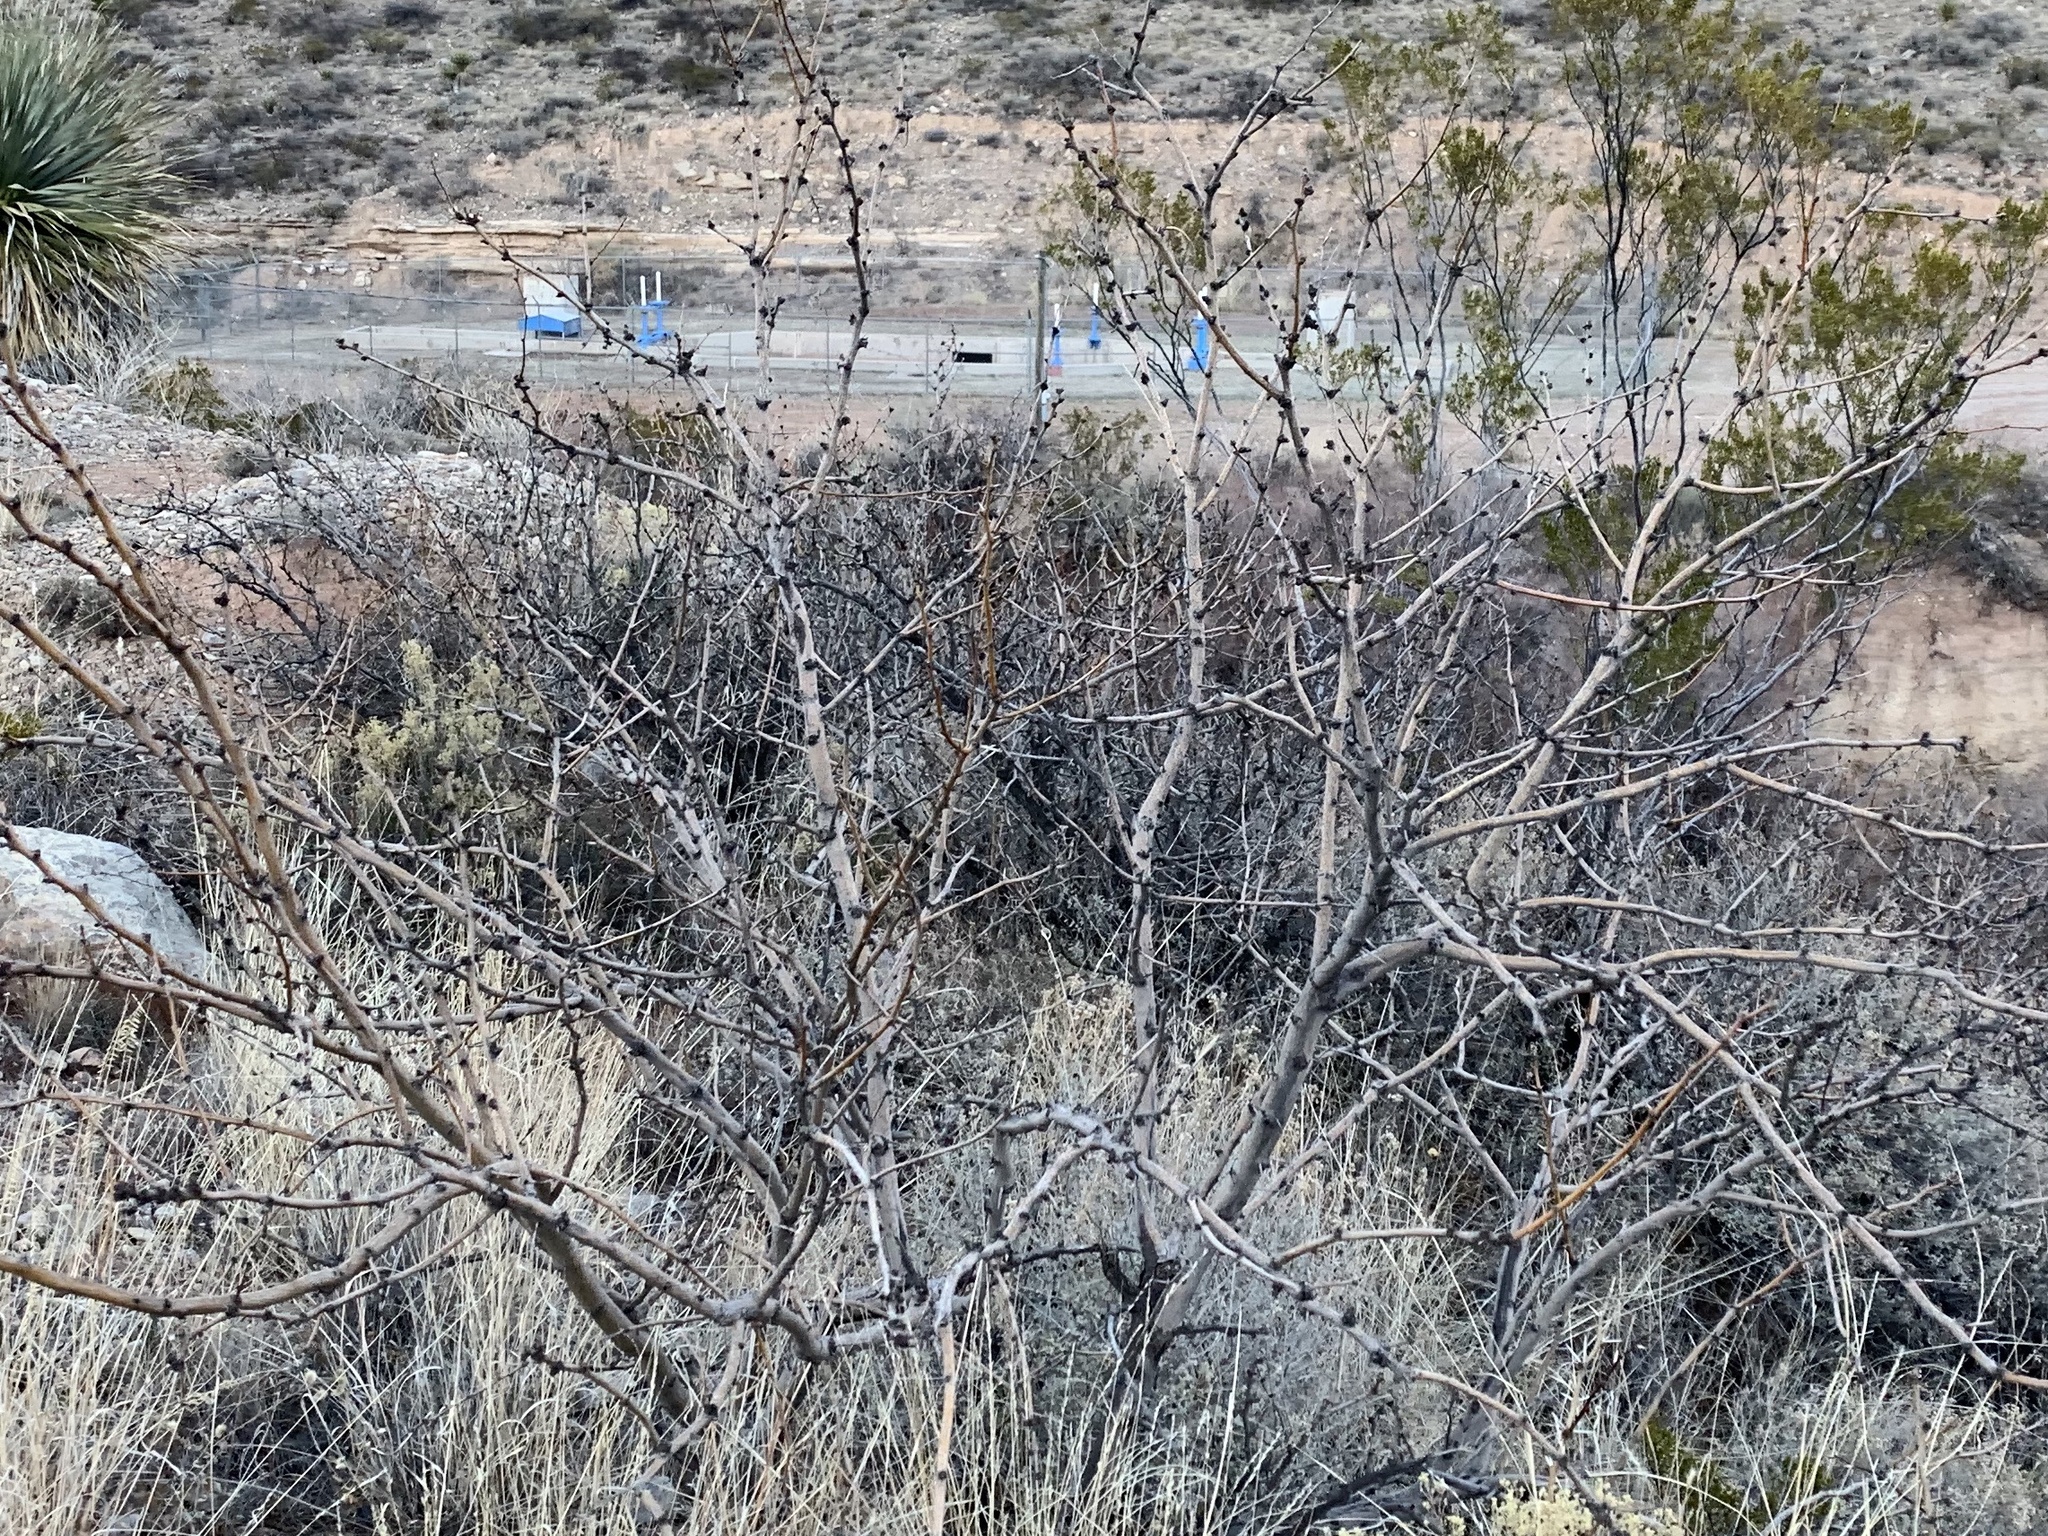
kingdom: Plantae
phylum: Tracheophyta
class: Magnoliopsida
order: Fabales
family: Fabaceae
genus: Prosopis
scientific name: Prosopis glandulosa
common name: Honey mesquite
